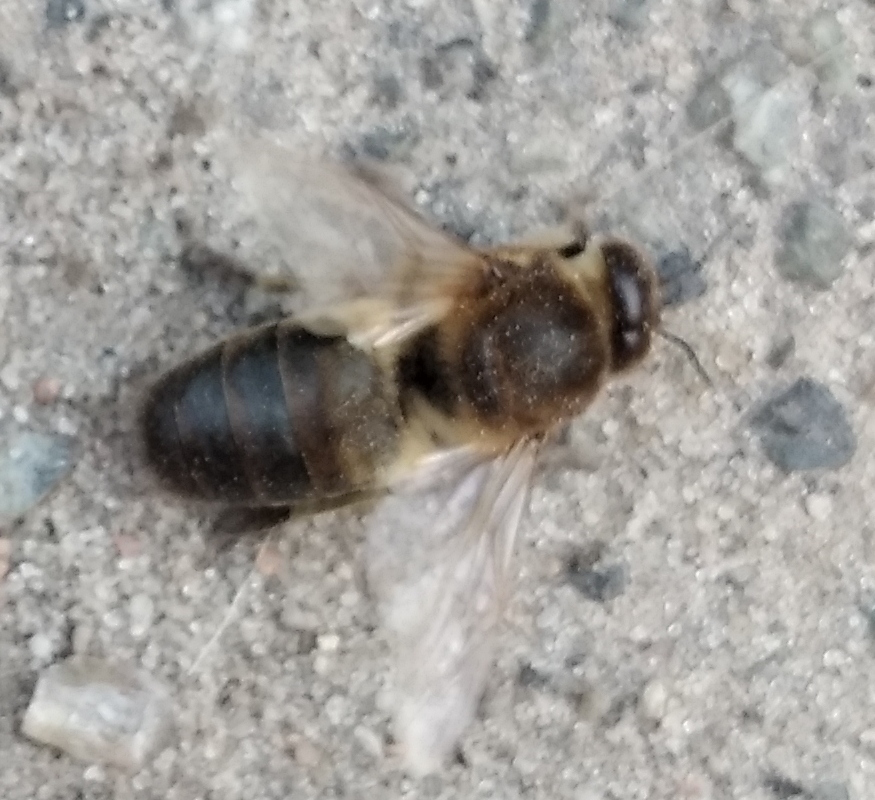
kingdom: Animalia
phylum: Arthropoda
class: Insecta
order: Hymenoptera
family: Apidae
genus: Apis
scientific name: Apis mellifera
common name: Honey bee
